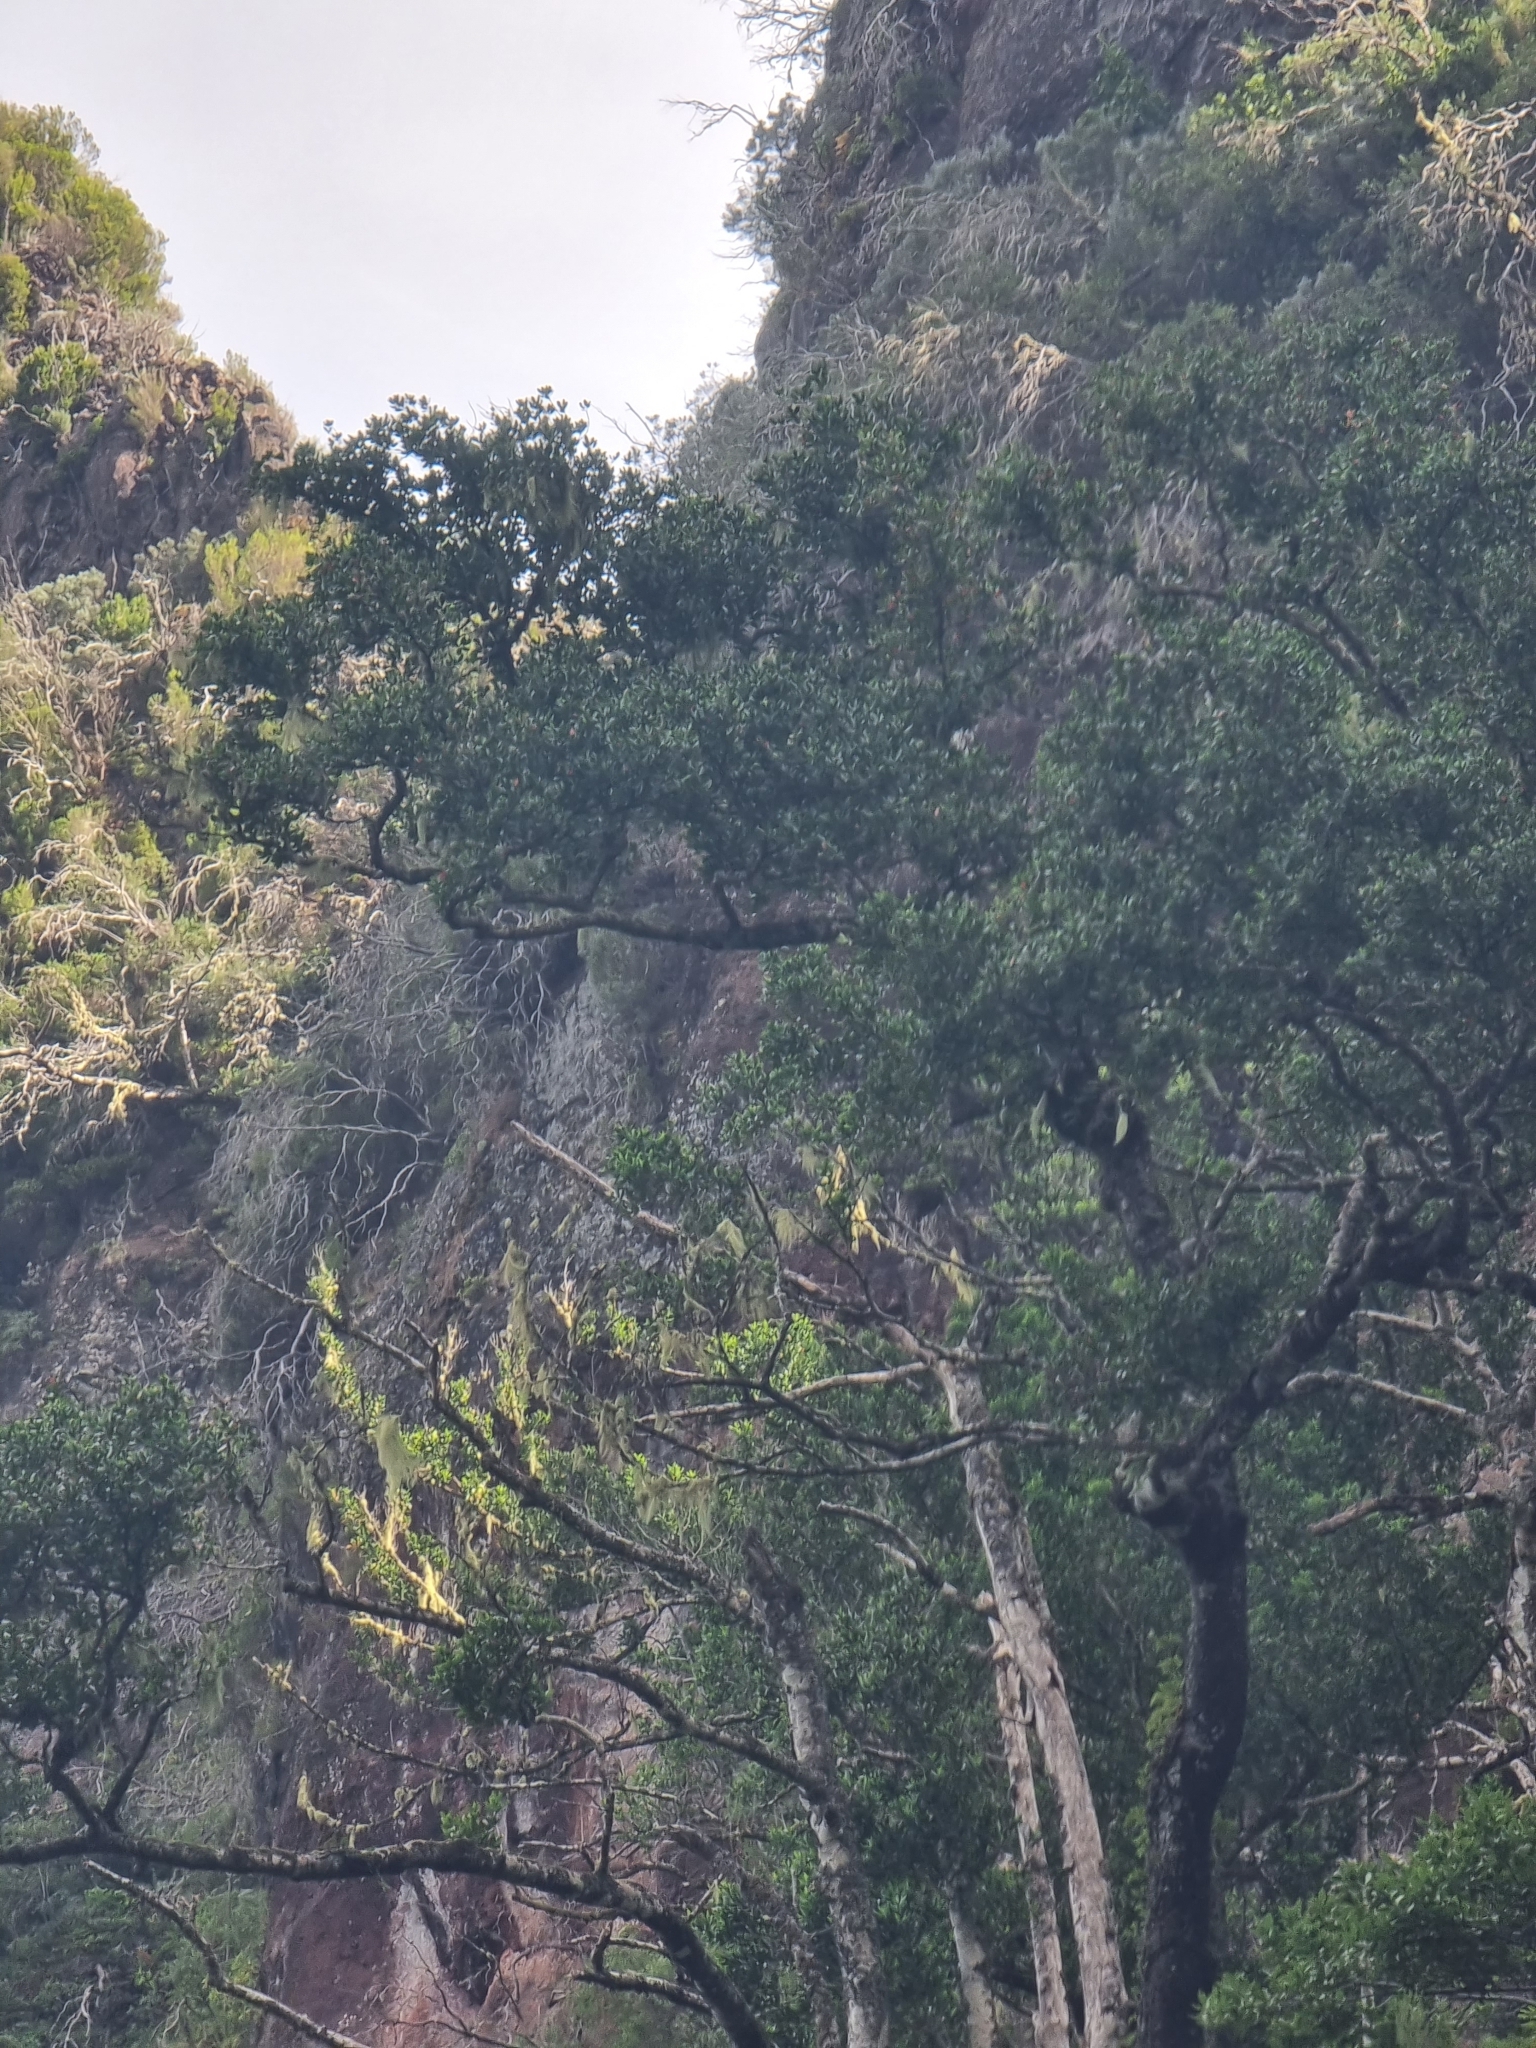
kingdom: Plantae
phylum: Tracheophyta
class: Magnoliopsida
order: Laurales
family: Lauraceae
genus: Mespilodaphne
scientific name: Mespilodaphne foetens
